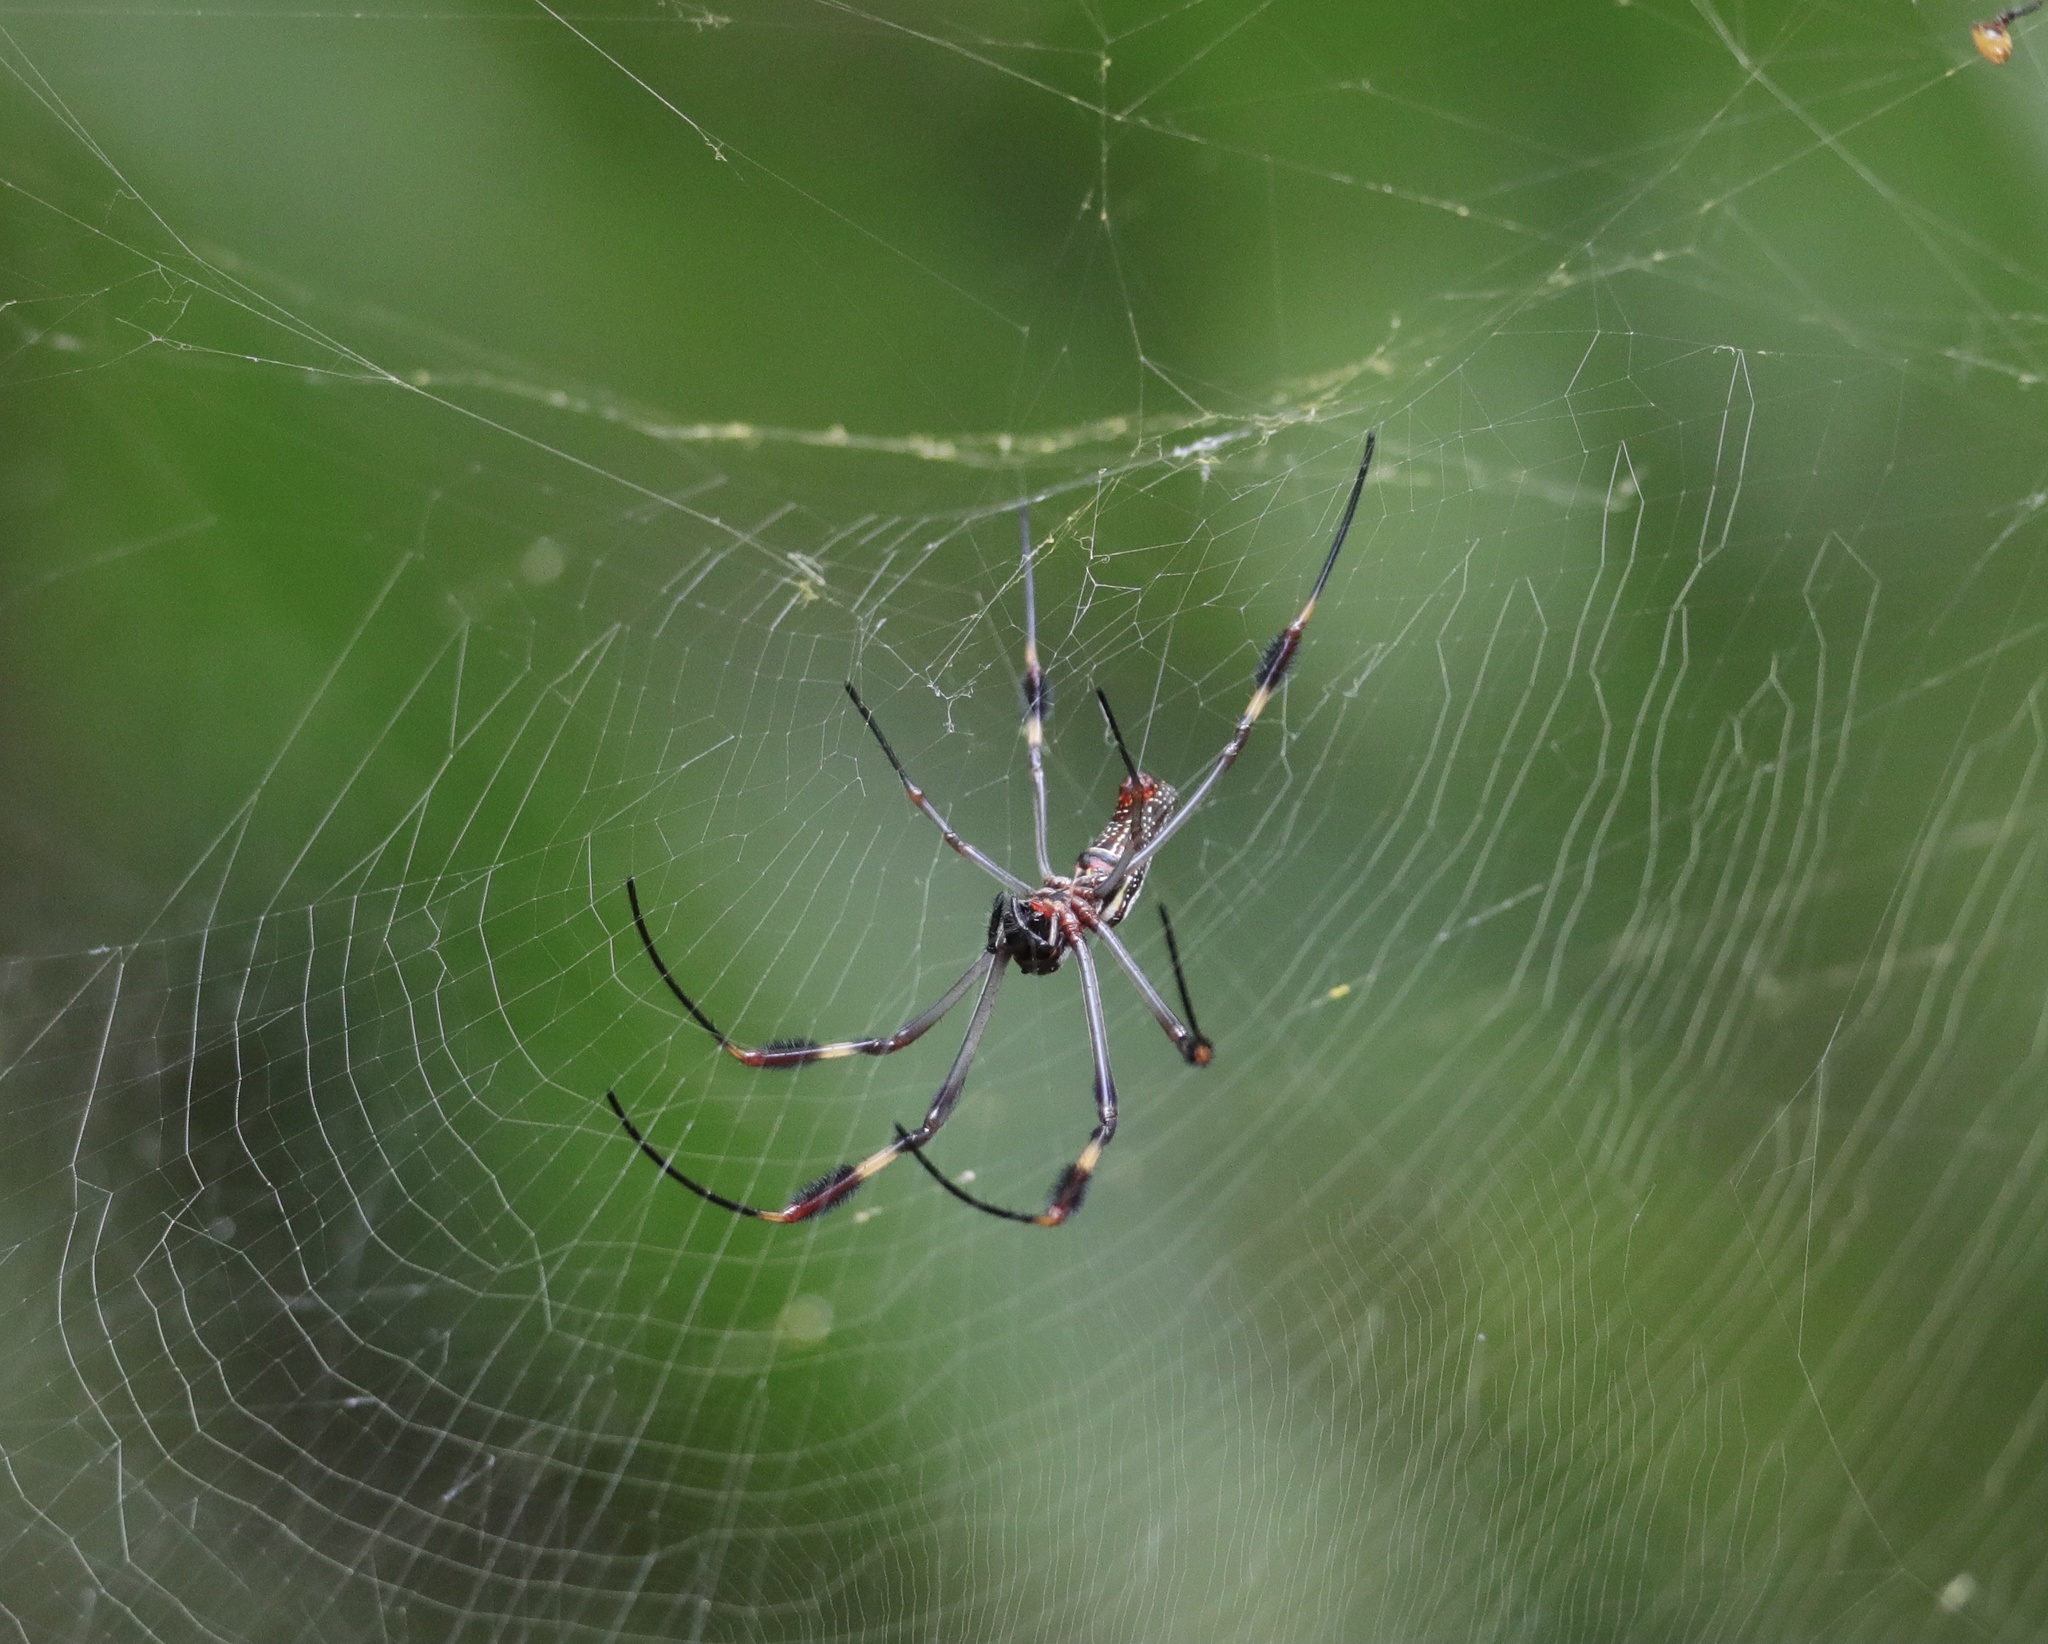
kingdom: Animalia
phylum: Arthropoda
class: Arachnida
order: Araneae
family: Araneidae
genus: Trichonephila
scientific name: Trichonephila clavipes
